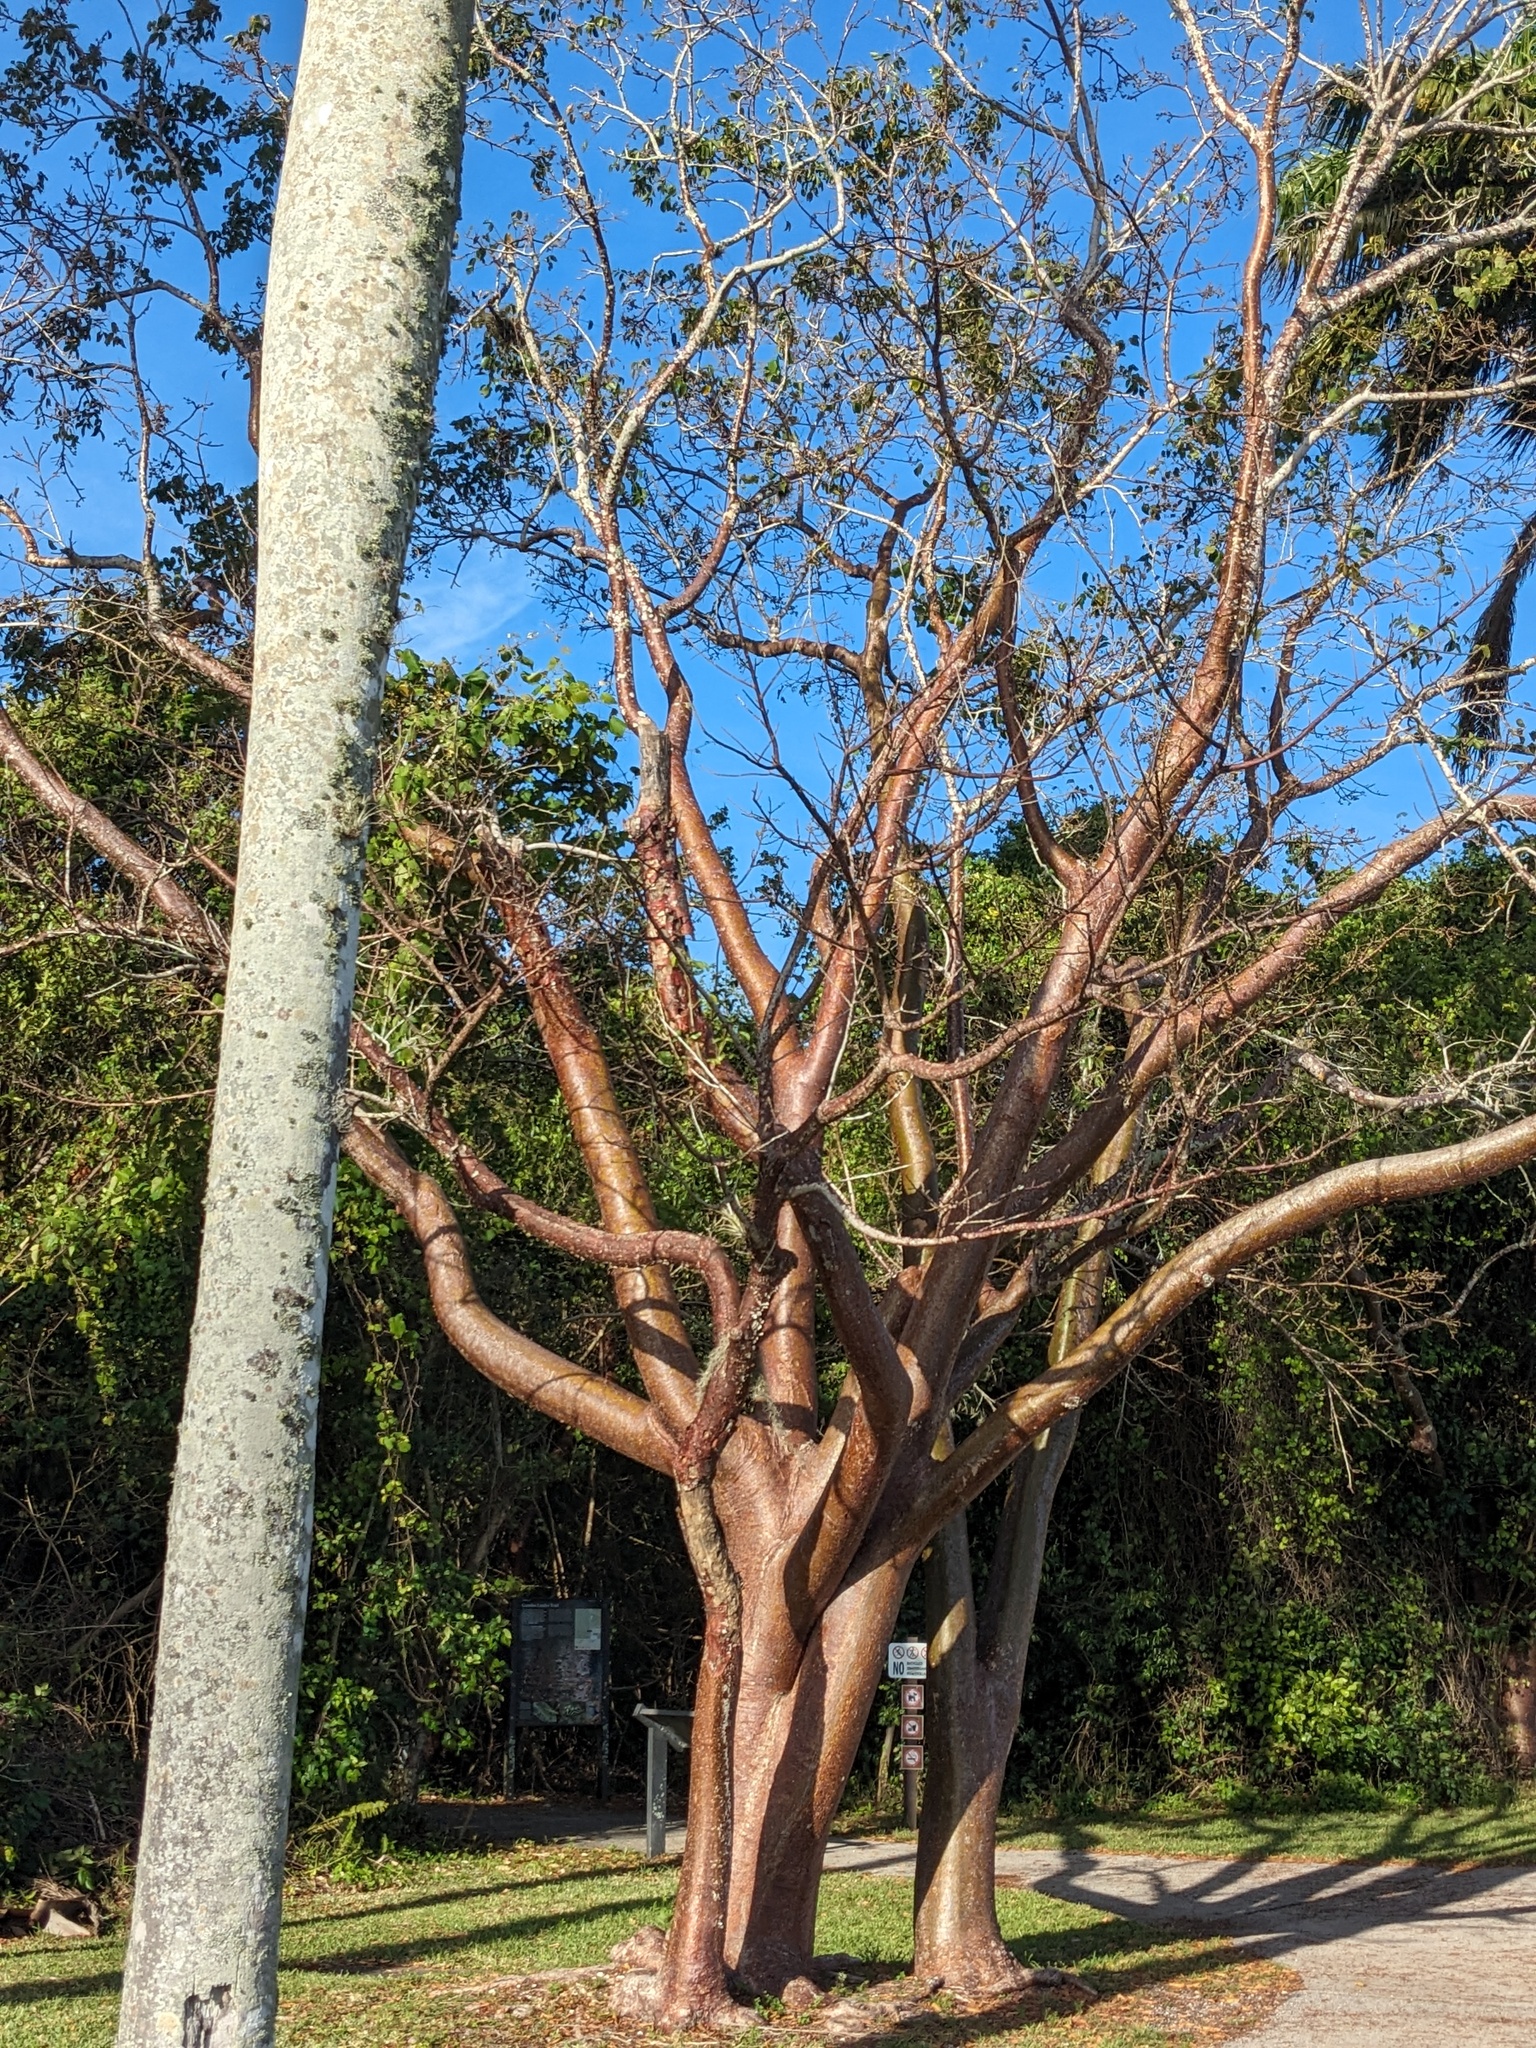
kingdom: Plantae
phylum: Tracheophyta
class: Magnoliopsida
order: Sapindales
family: Burseraceae
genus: Bursera
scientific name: Bursera simaruba
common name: Turpentine tree
